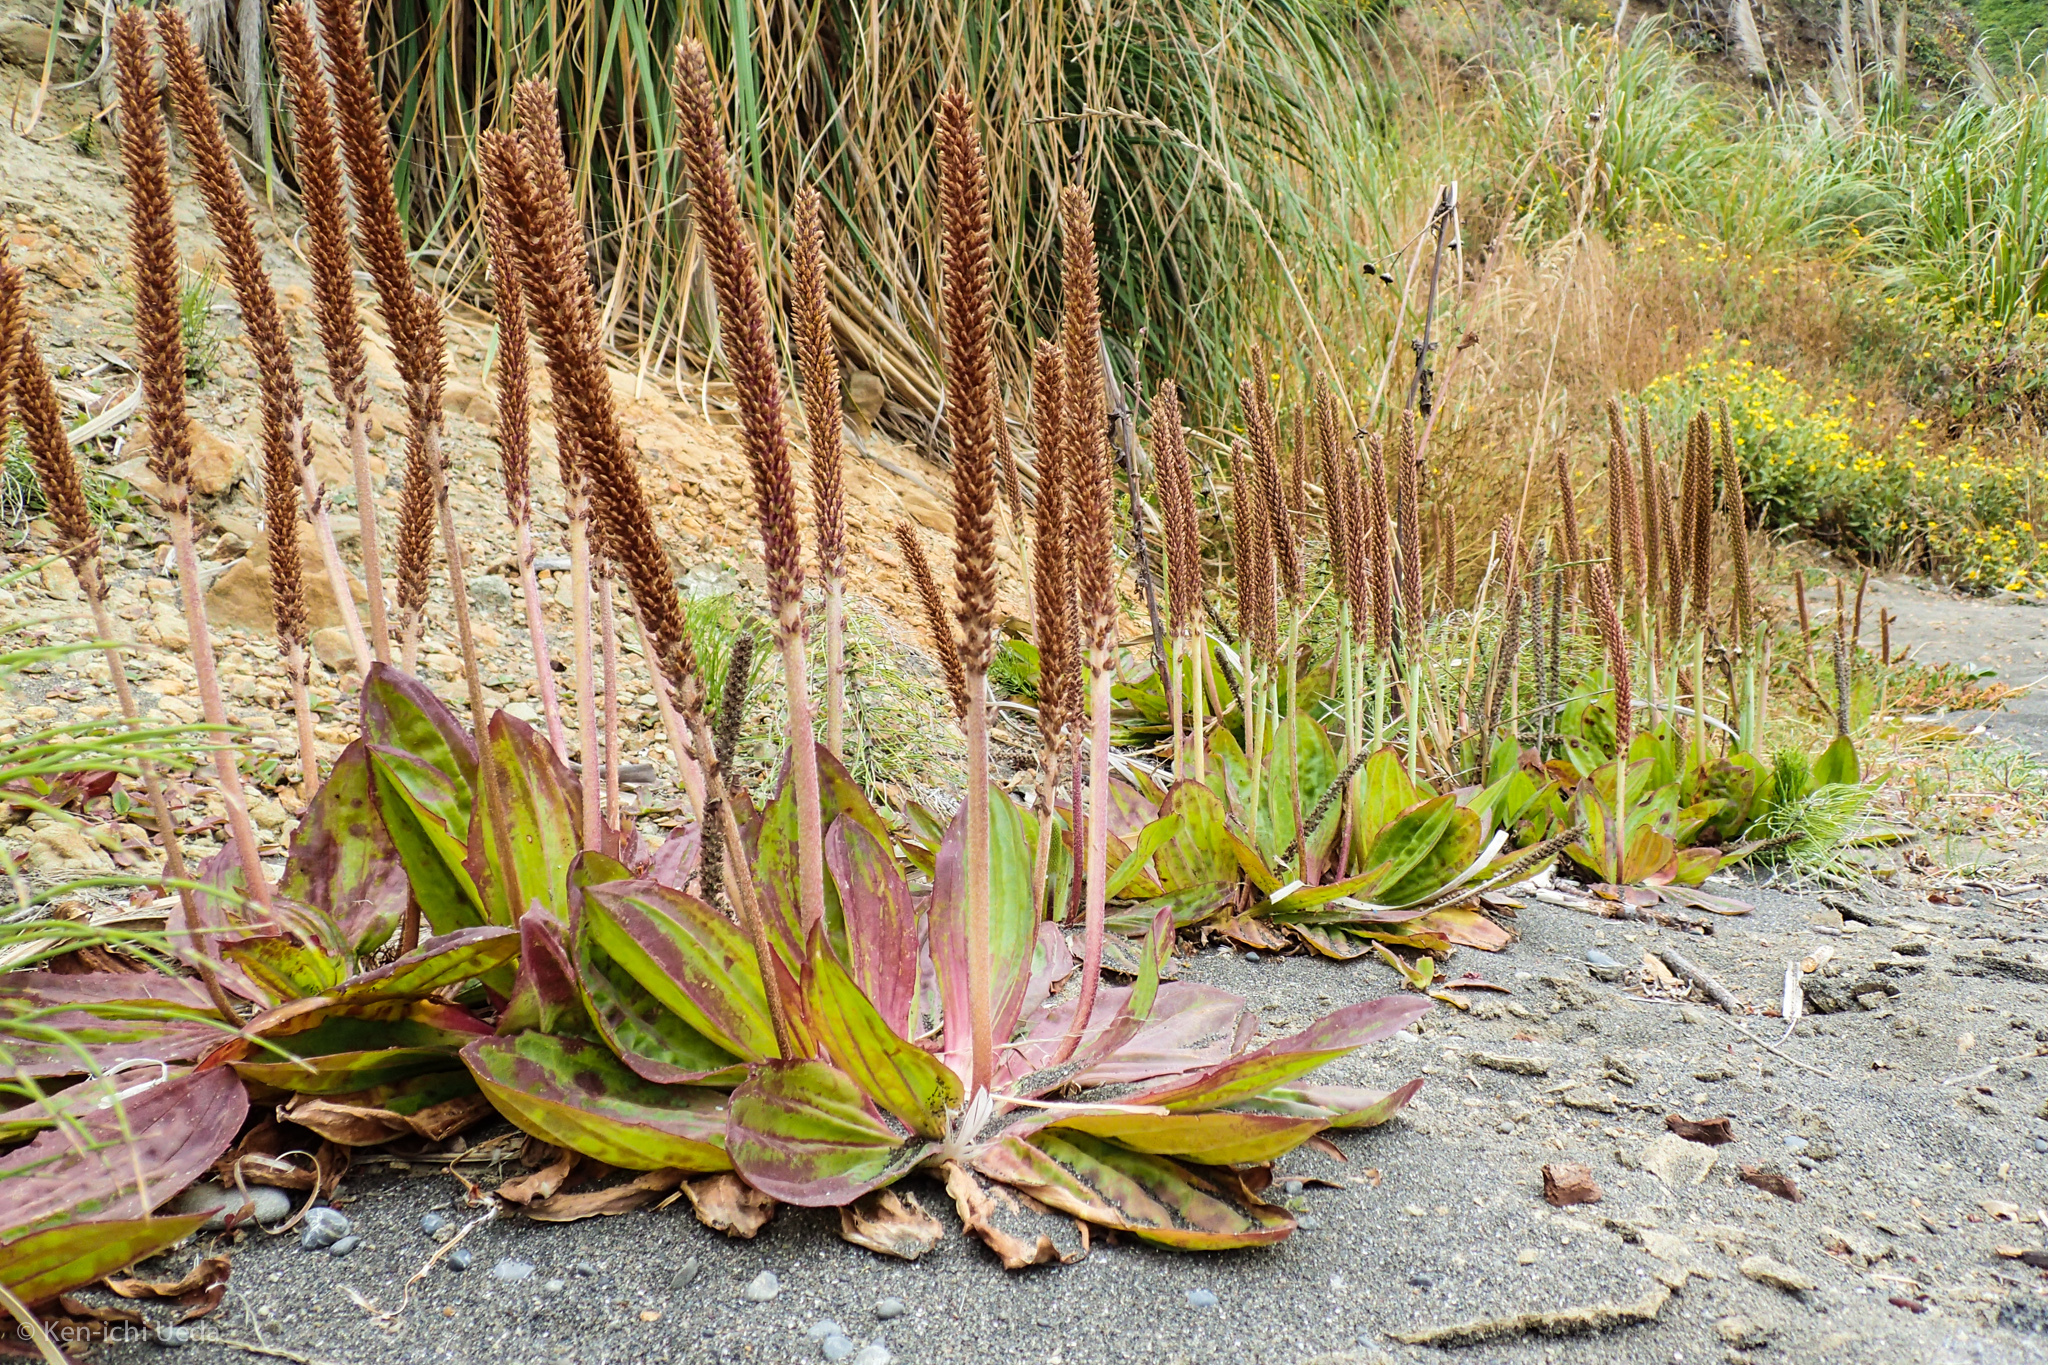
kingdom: Plantae
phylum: Tracheophyta
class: Magnoliopsida
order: Lamiales
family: Plantaginaceae
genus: Plantago
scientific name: Plantago subnuda
